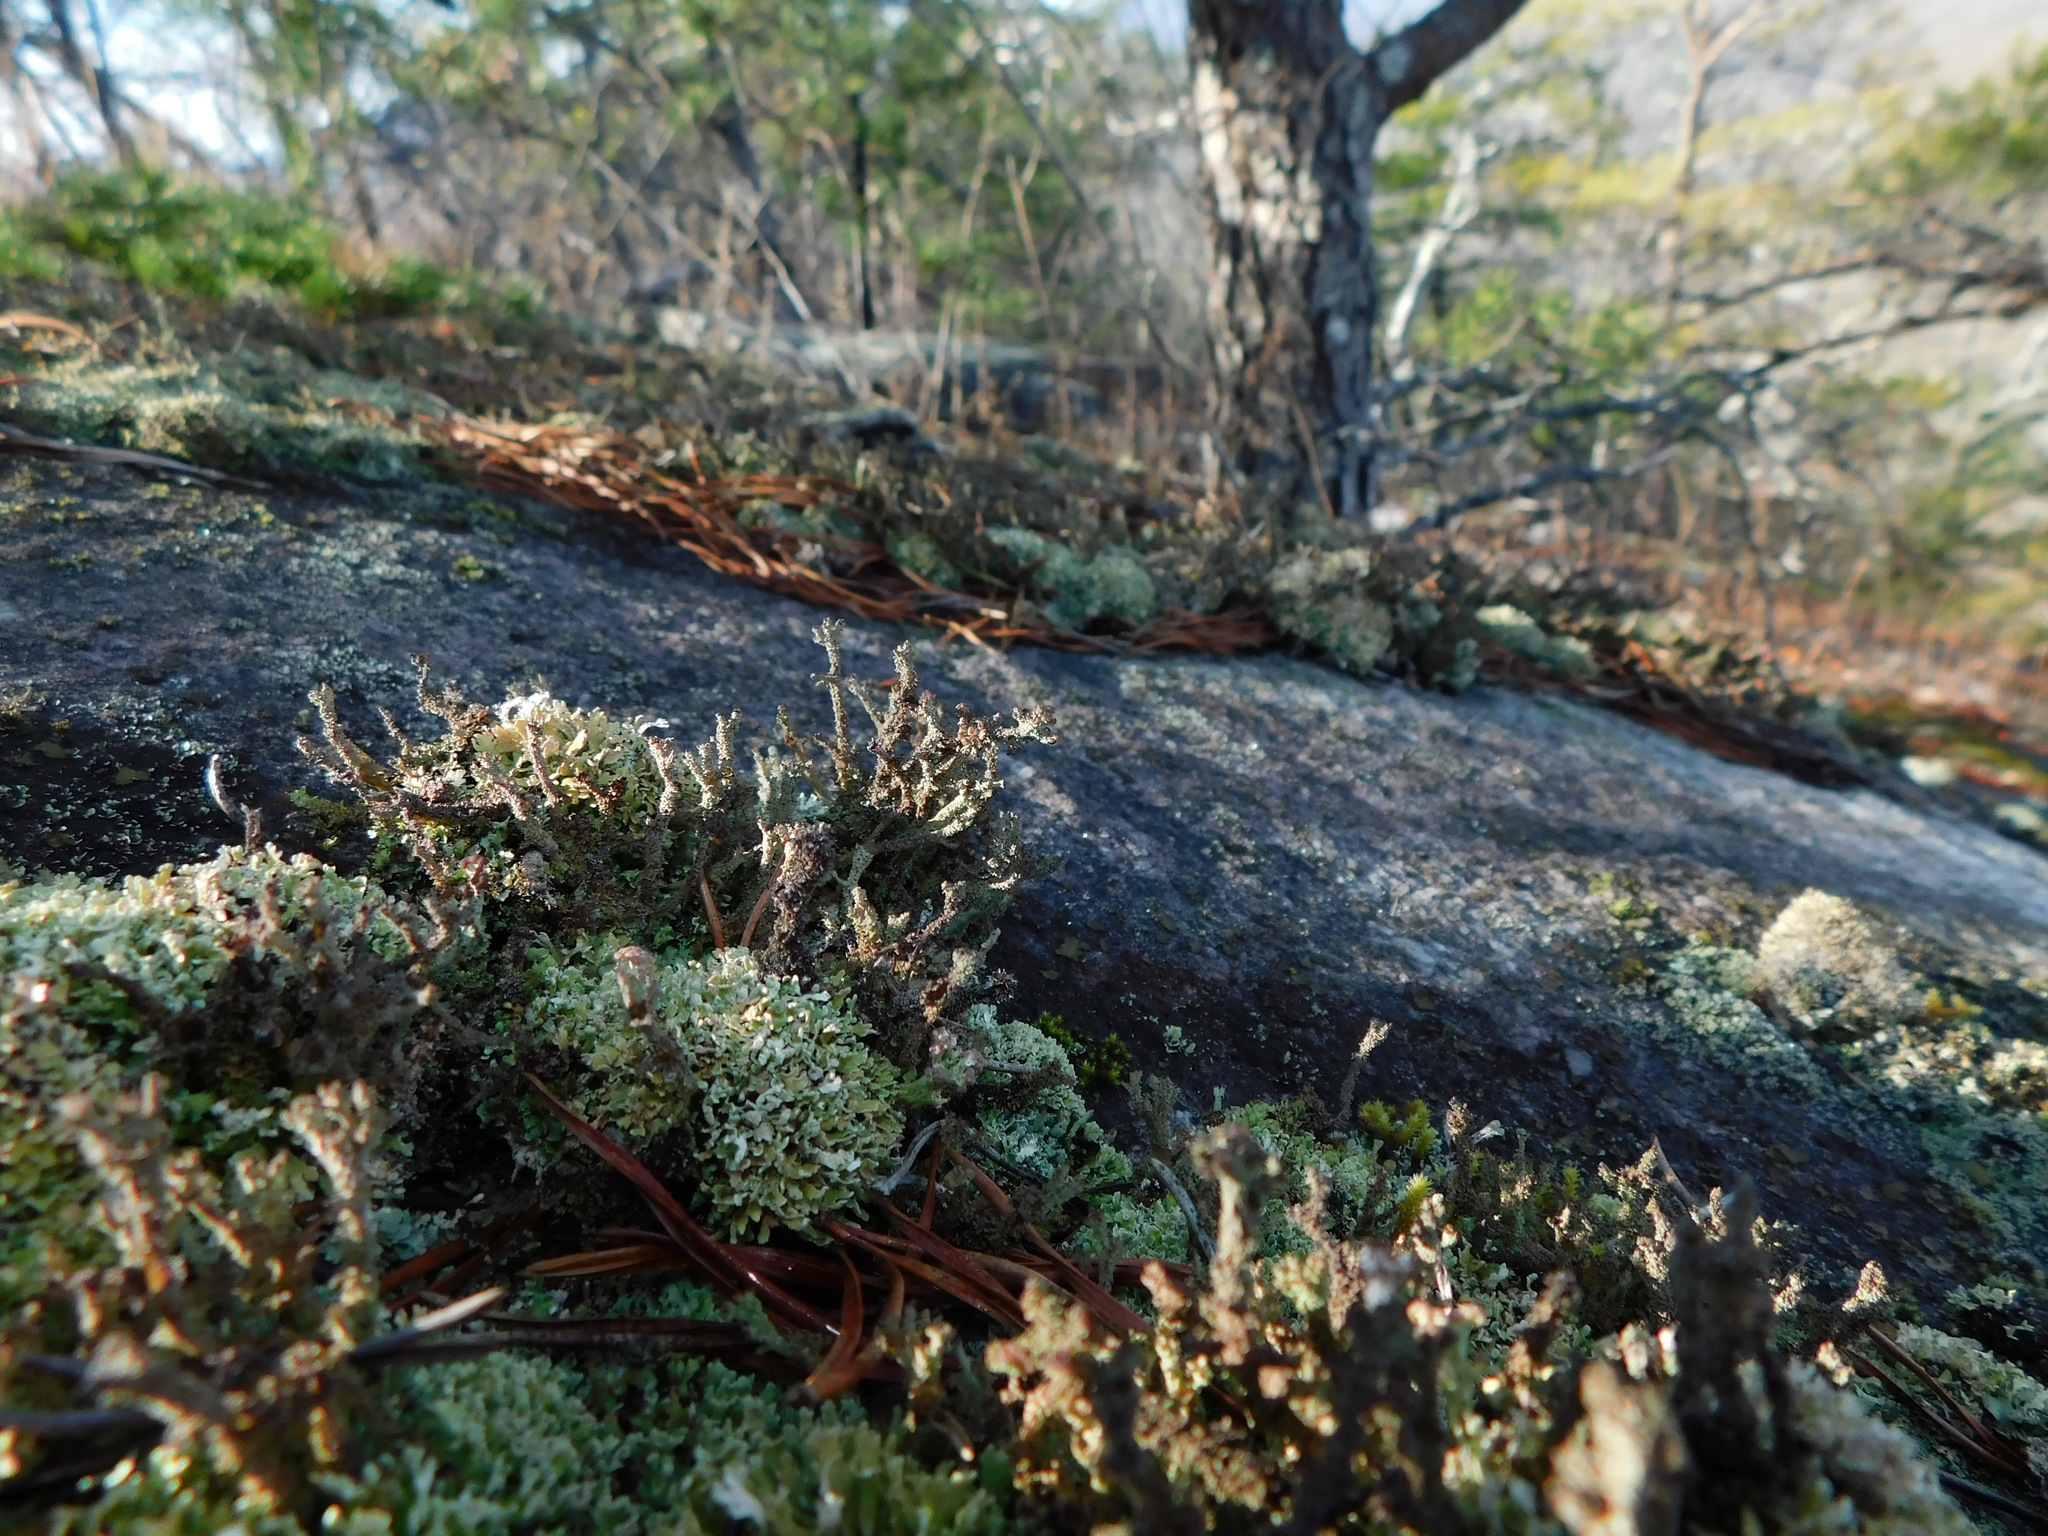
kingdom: Fungi
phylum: Ascomycota
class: Lecanoromycetes
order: Lecanorales
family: Cladoniaceae
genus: Cladonia
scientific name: Cladonia floerkeana
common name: Gritty british soldiers lichen
